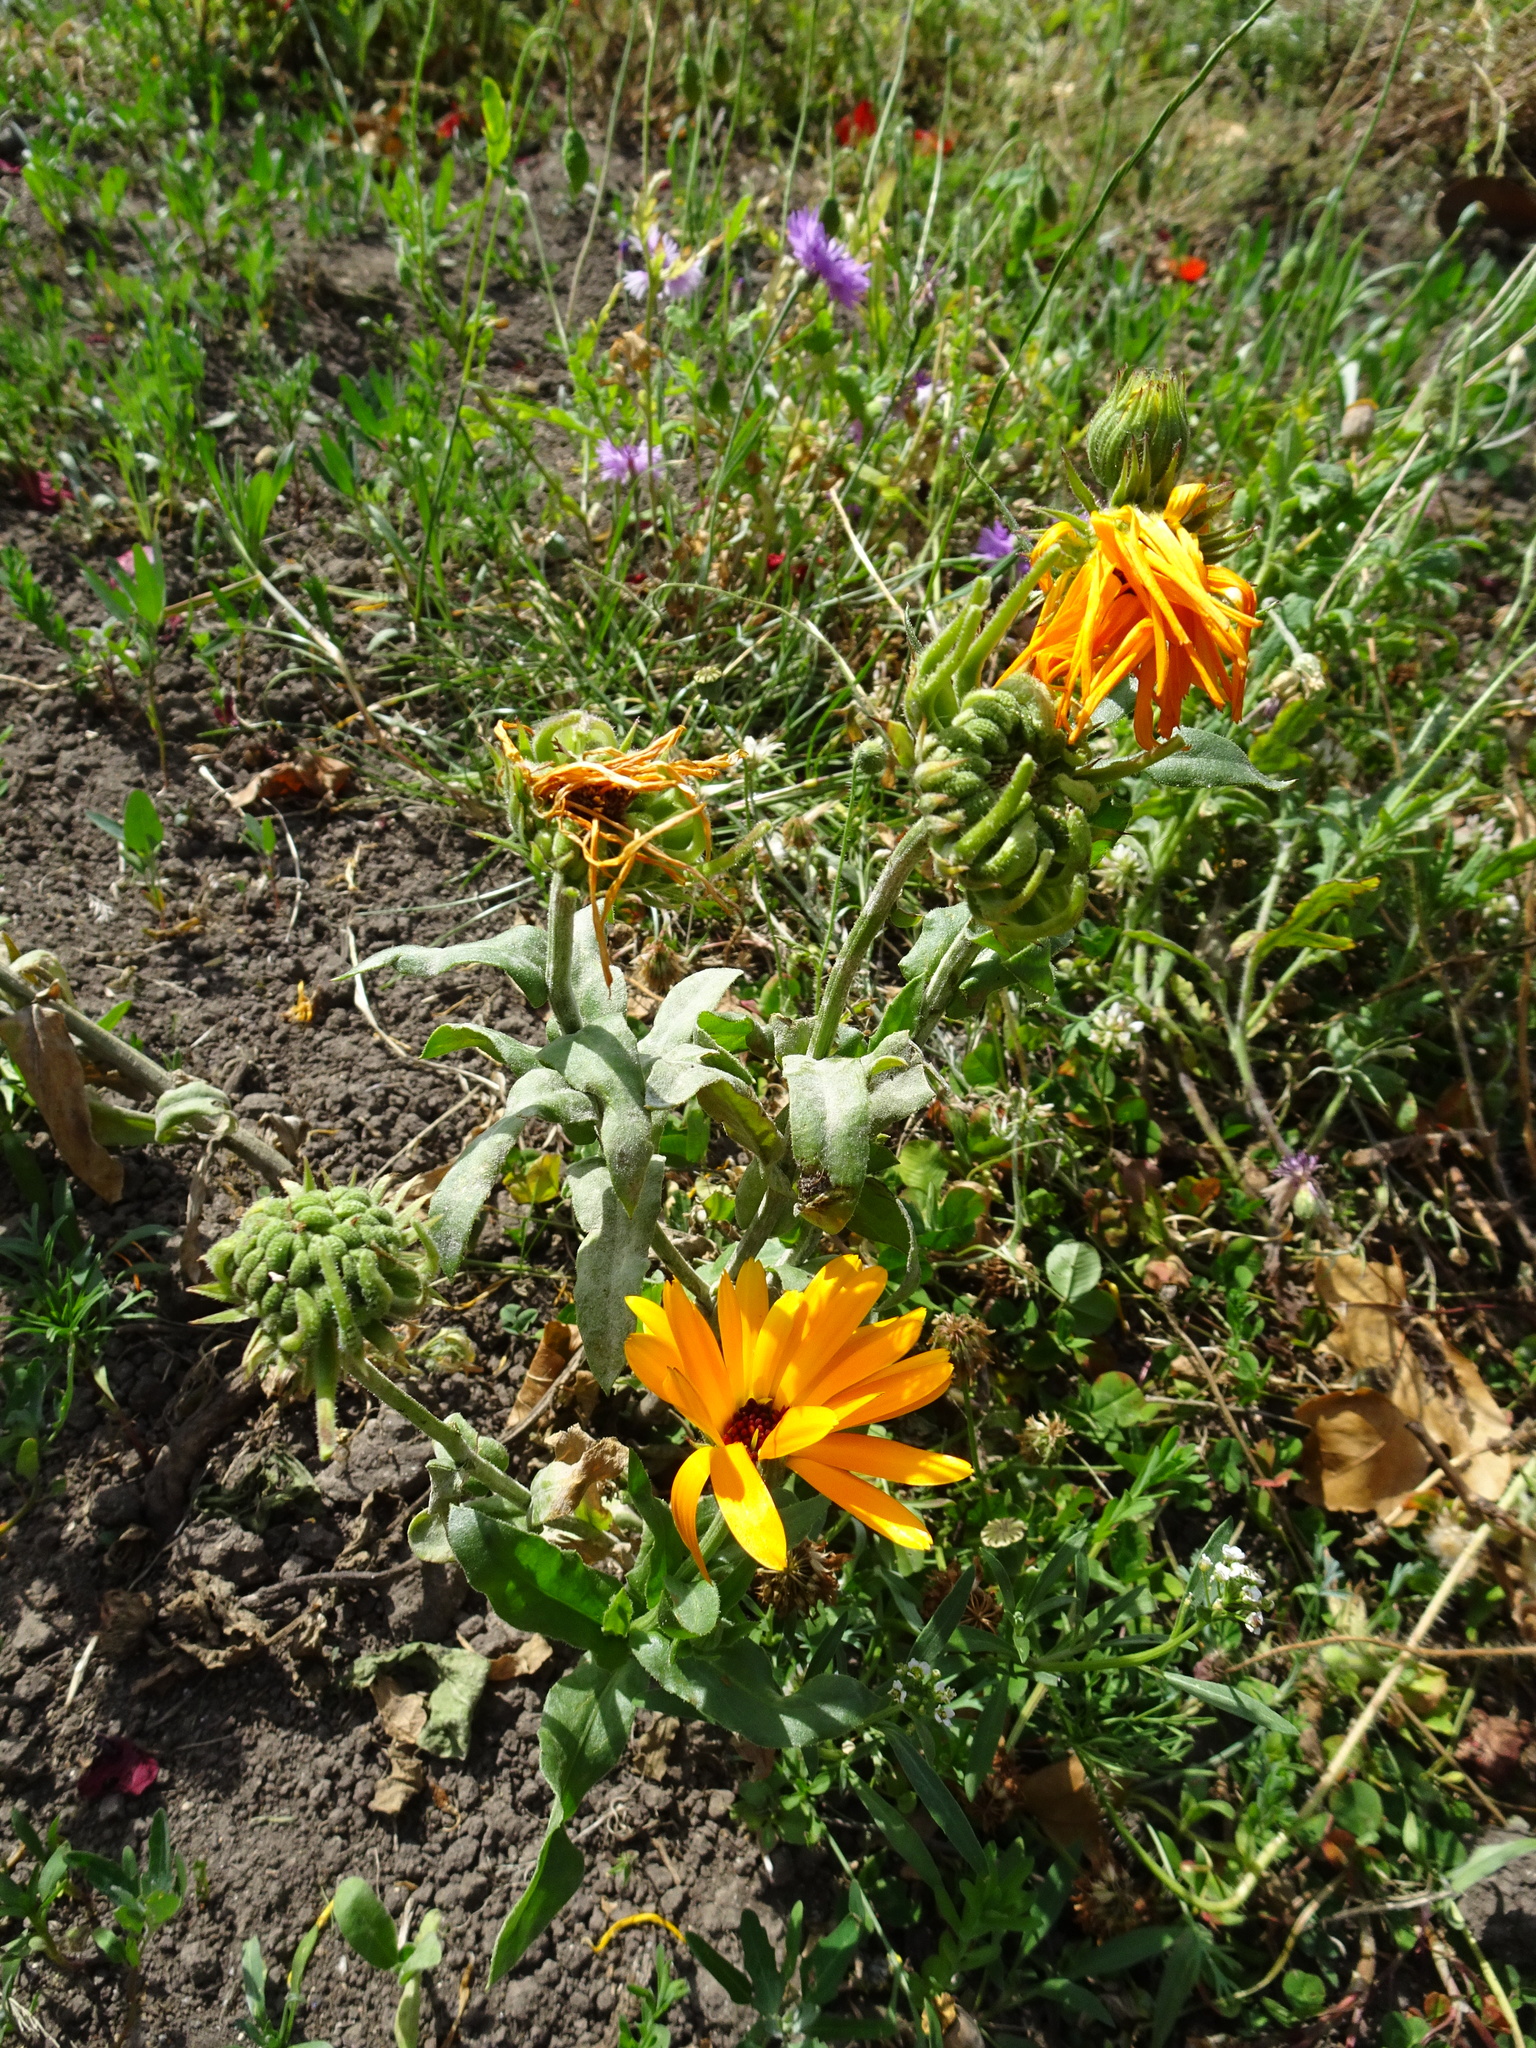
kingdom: Plantae
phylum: Tracheophyta
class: Magnoliopsida
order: Asterales
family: Asteraceae
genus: Calendula
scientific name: Calendula officinalis
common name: Pot marigold
